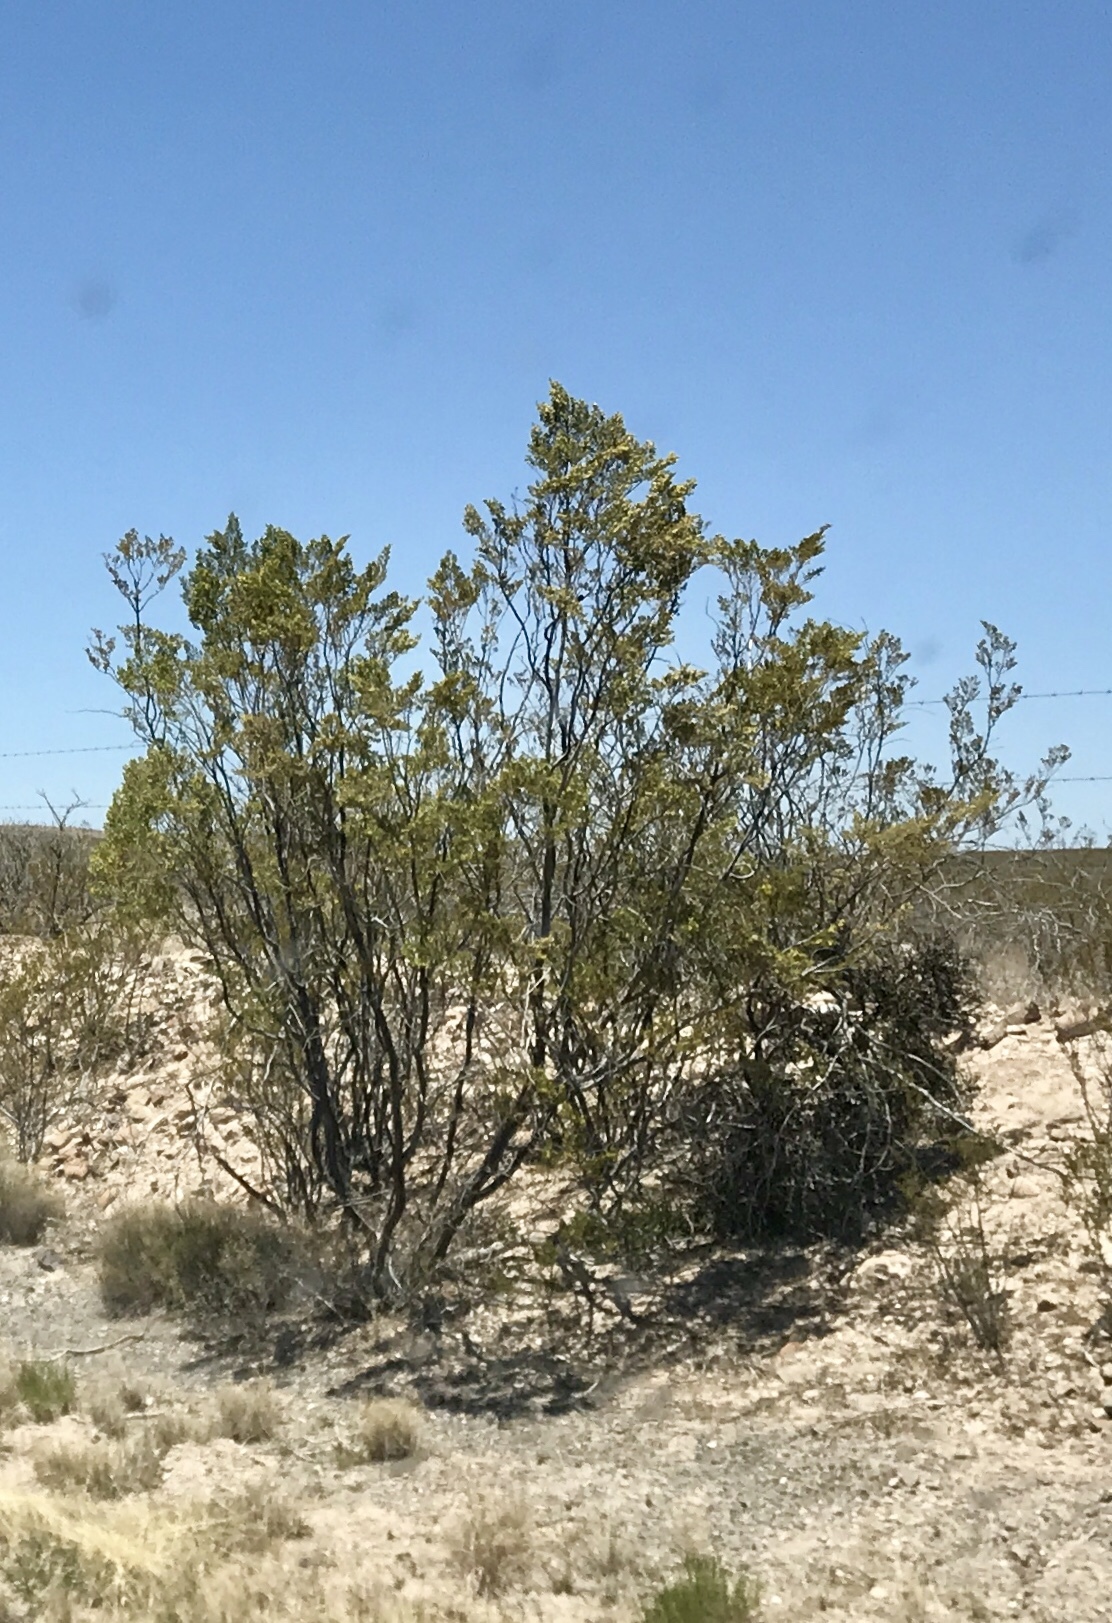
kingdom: Plantae
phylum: Tracheophyta
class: Magnoliopsida
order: Zygophyllales
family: Zygophyllaceae
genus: Larrea
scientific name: Larrea tridentata
